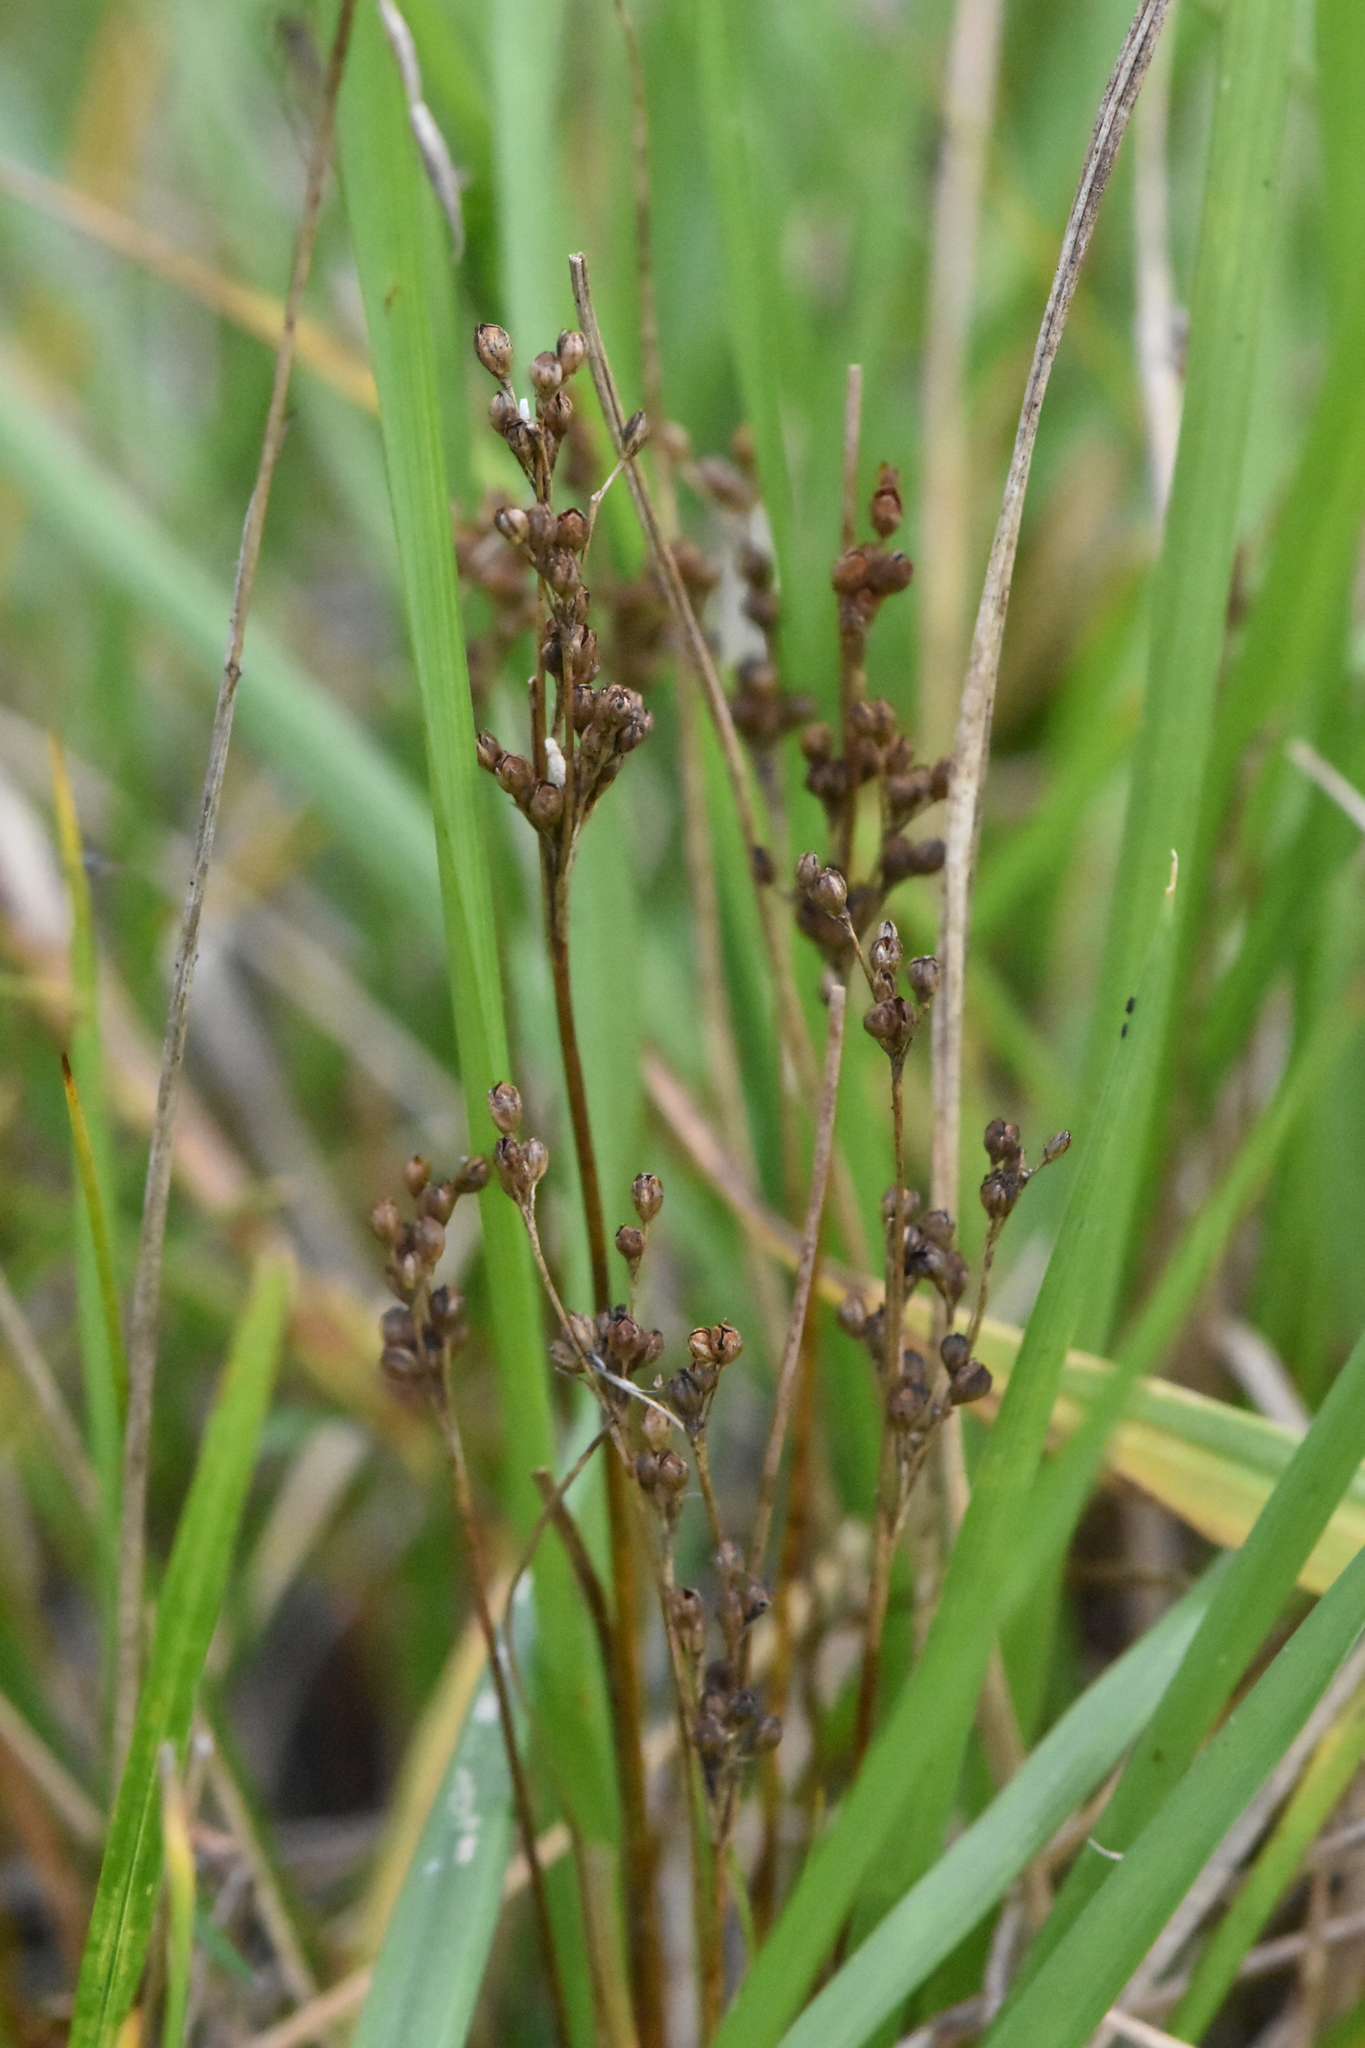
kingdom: Plantae
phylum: Tracheophyta
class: Liliopsida
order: Poales
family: Juncaceae
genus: Juncus
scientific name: Juncus compressus
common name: Round-fruited rush
